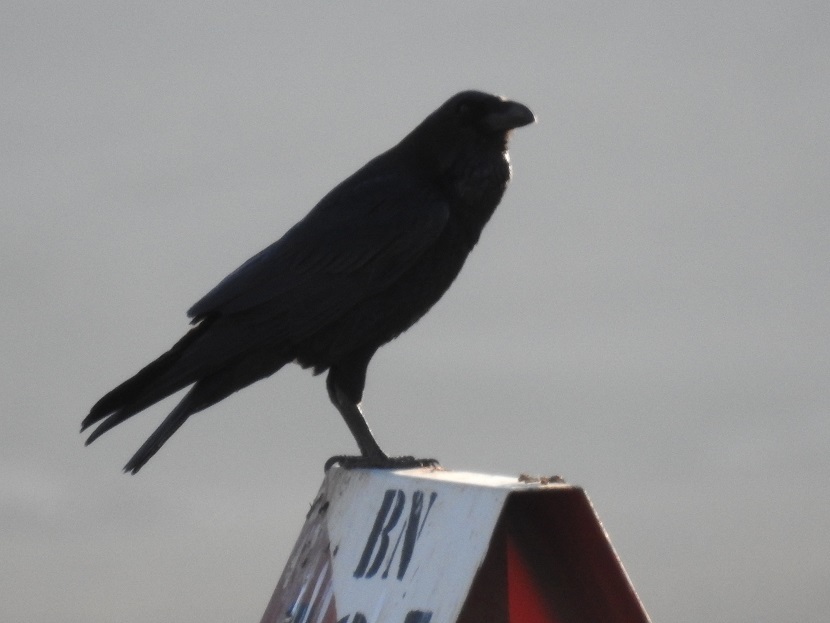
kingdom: Animalia
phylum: Chordata
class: Aves
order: Passeriformes
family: Corvidae
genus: Corvus
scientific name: Corvus corax
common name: Common raven
